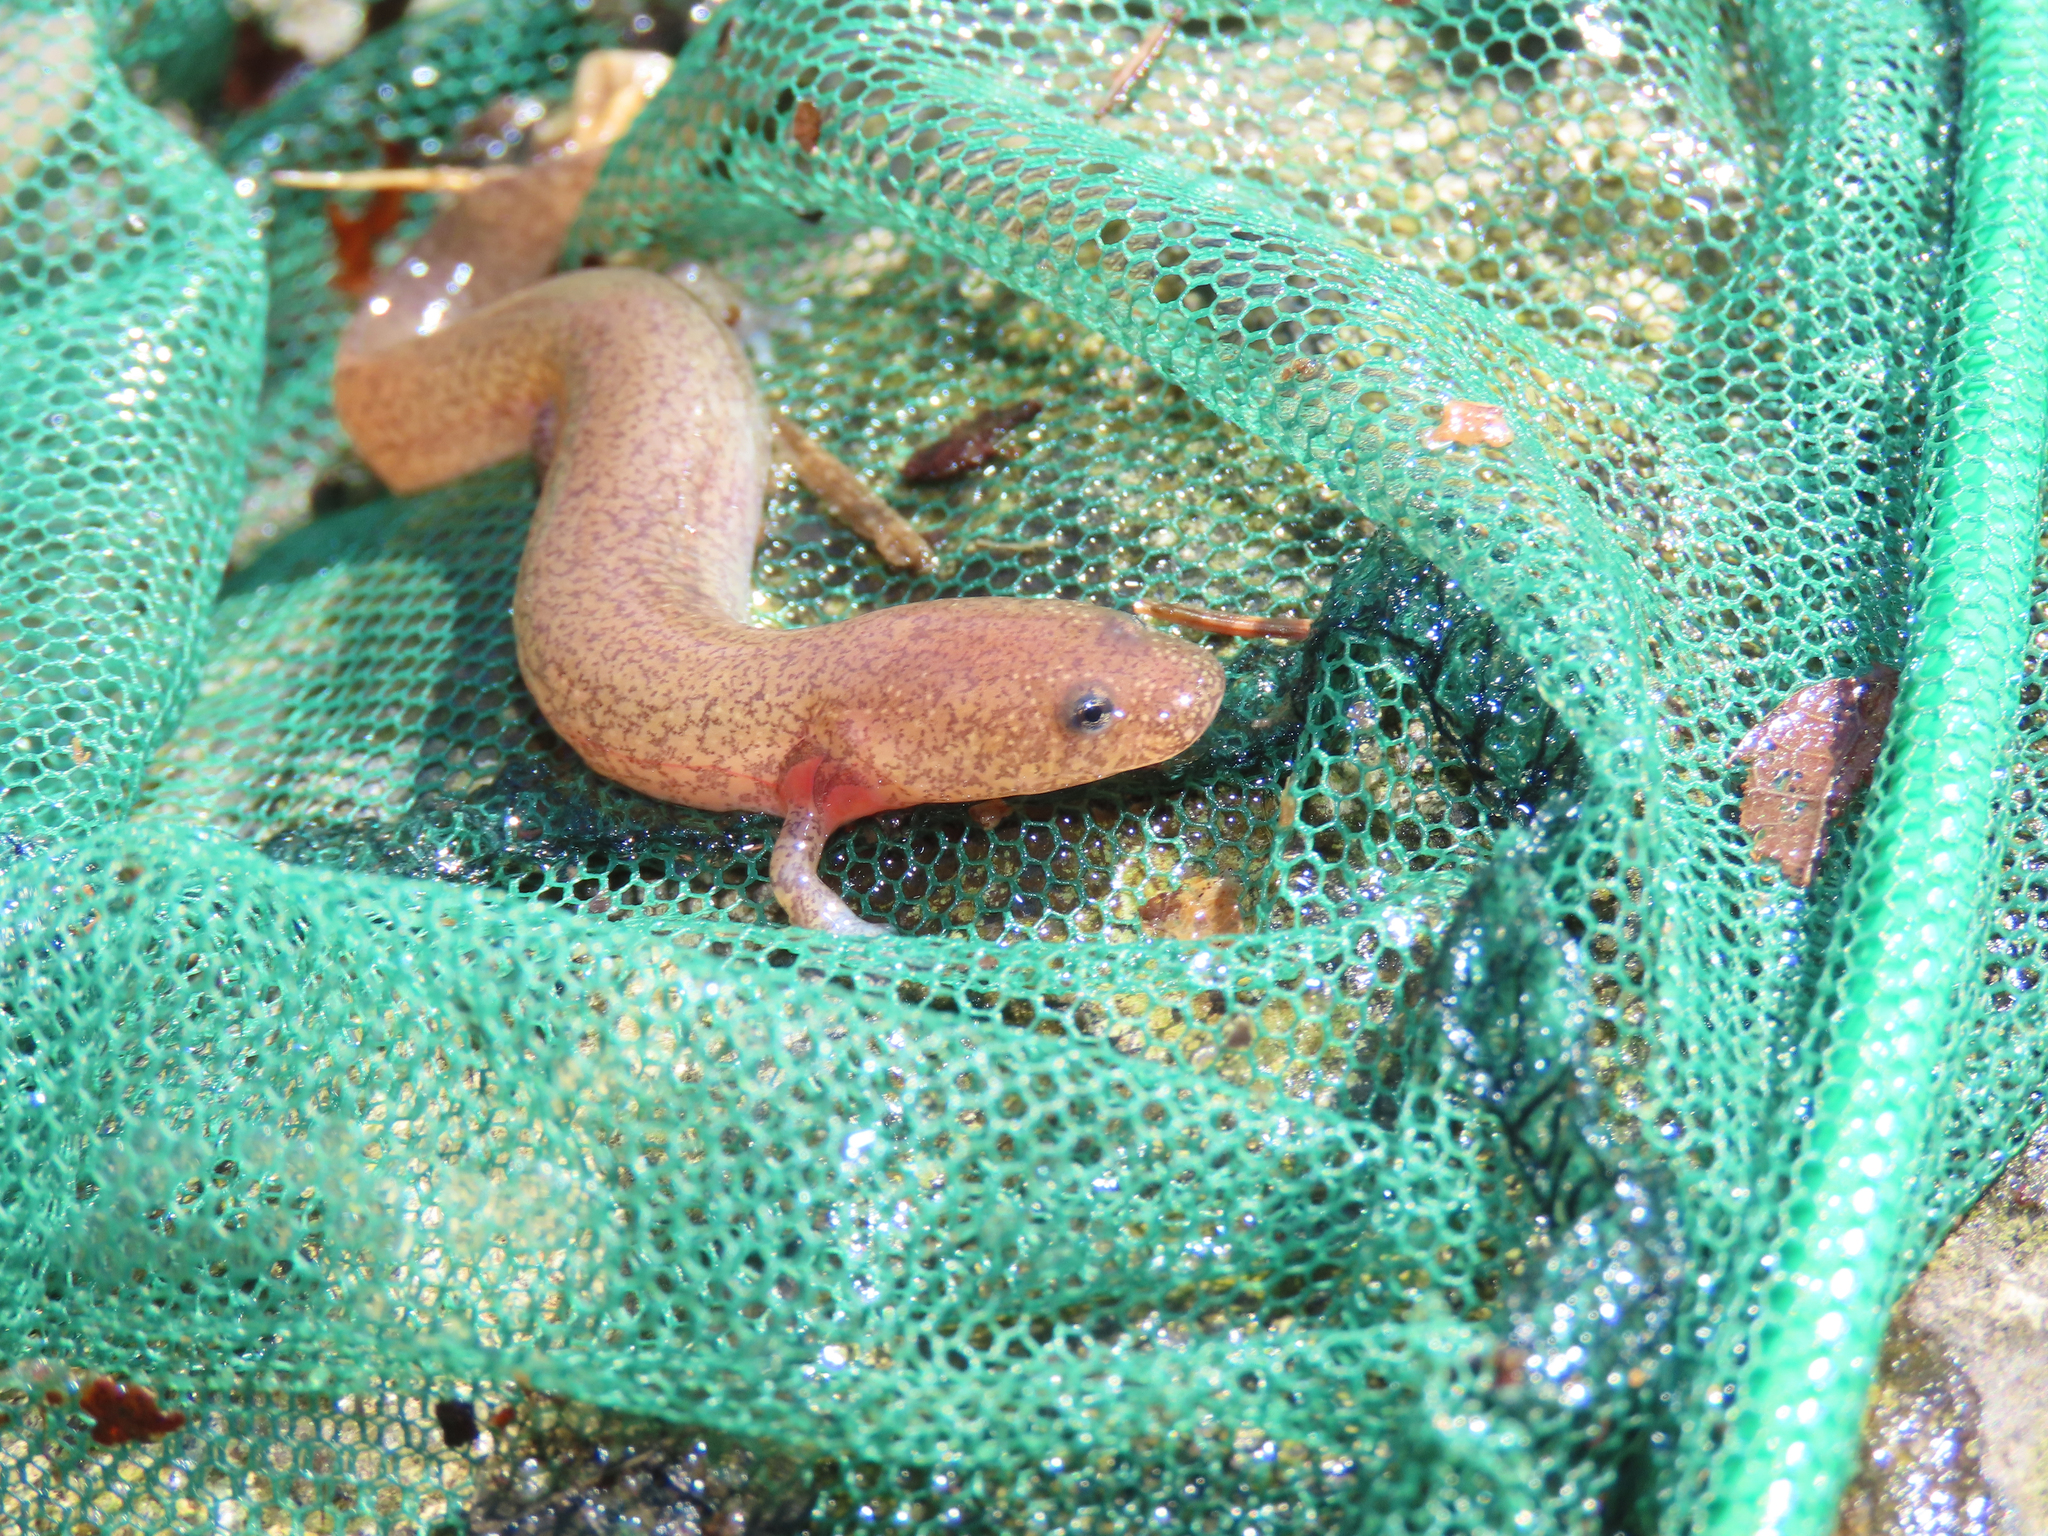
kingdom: Animalia
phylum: Chordata
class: Amphibia
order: Caudata
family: Plethodontidae
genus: Gyrinophilus
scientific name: Gyrinophilus porphyriticus
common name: Spring salamander
